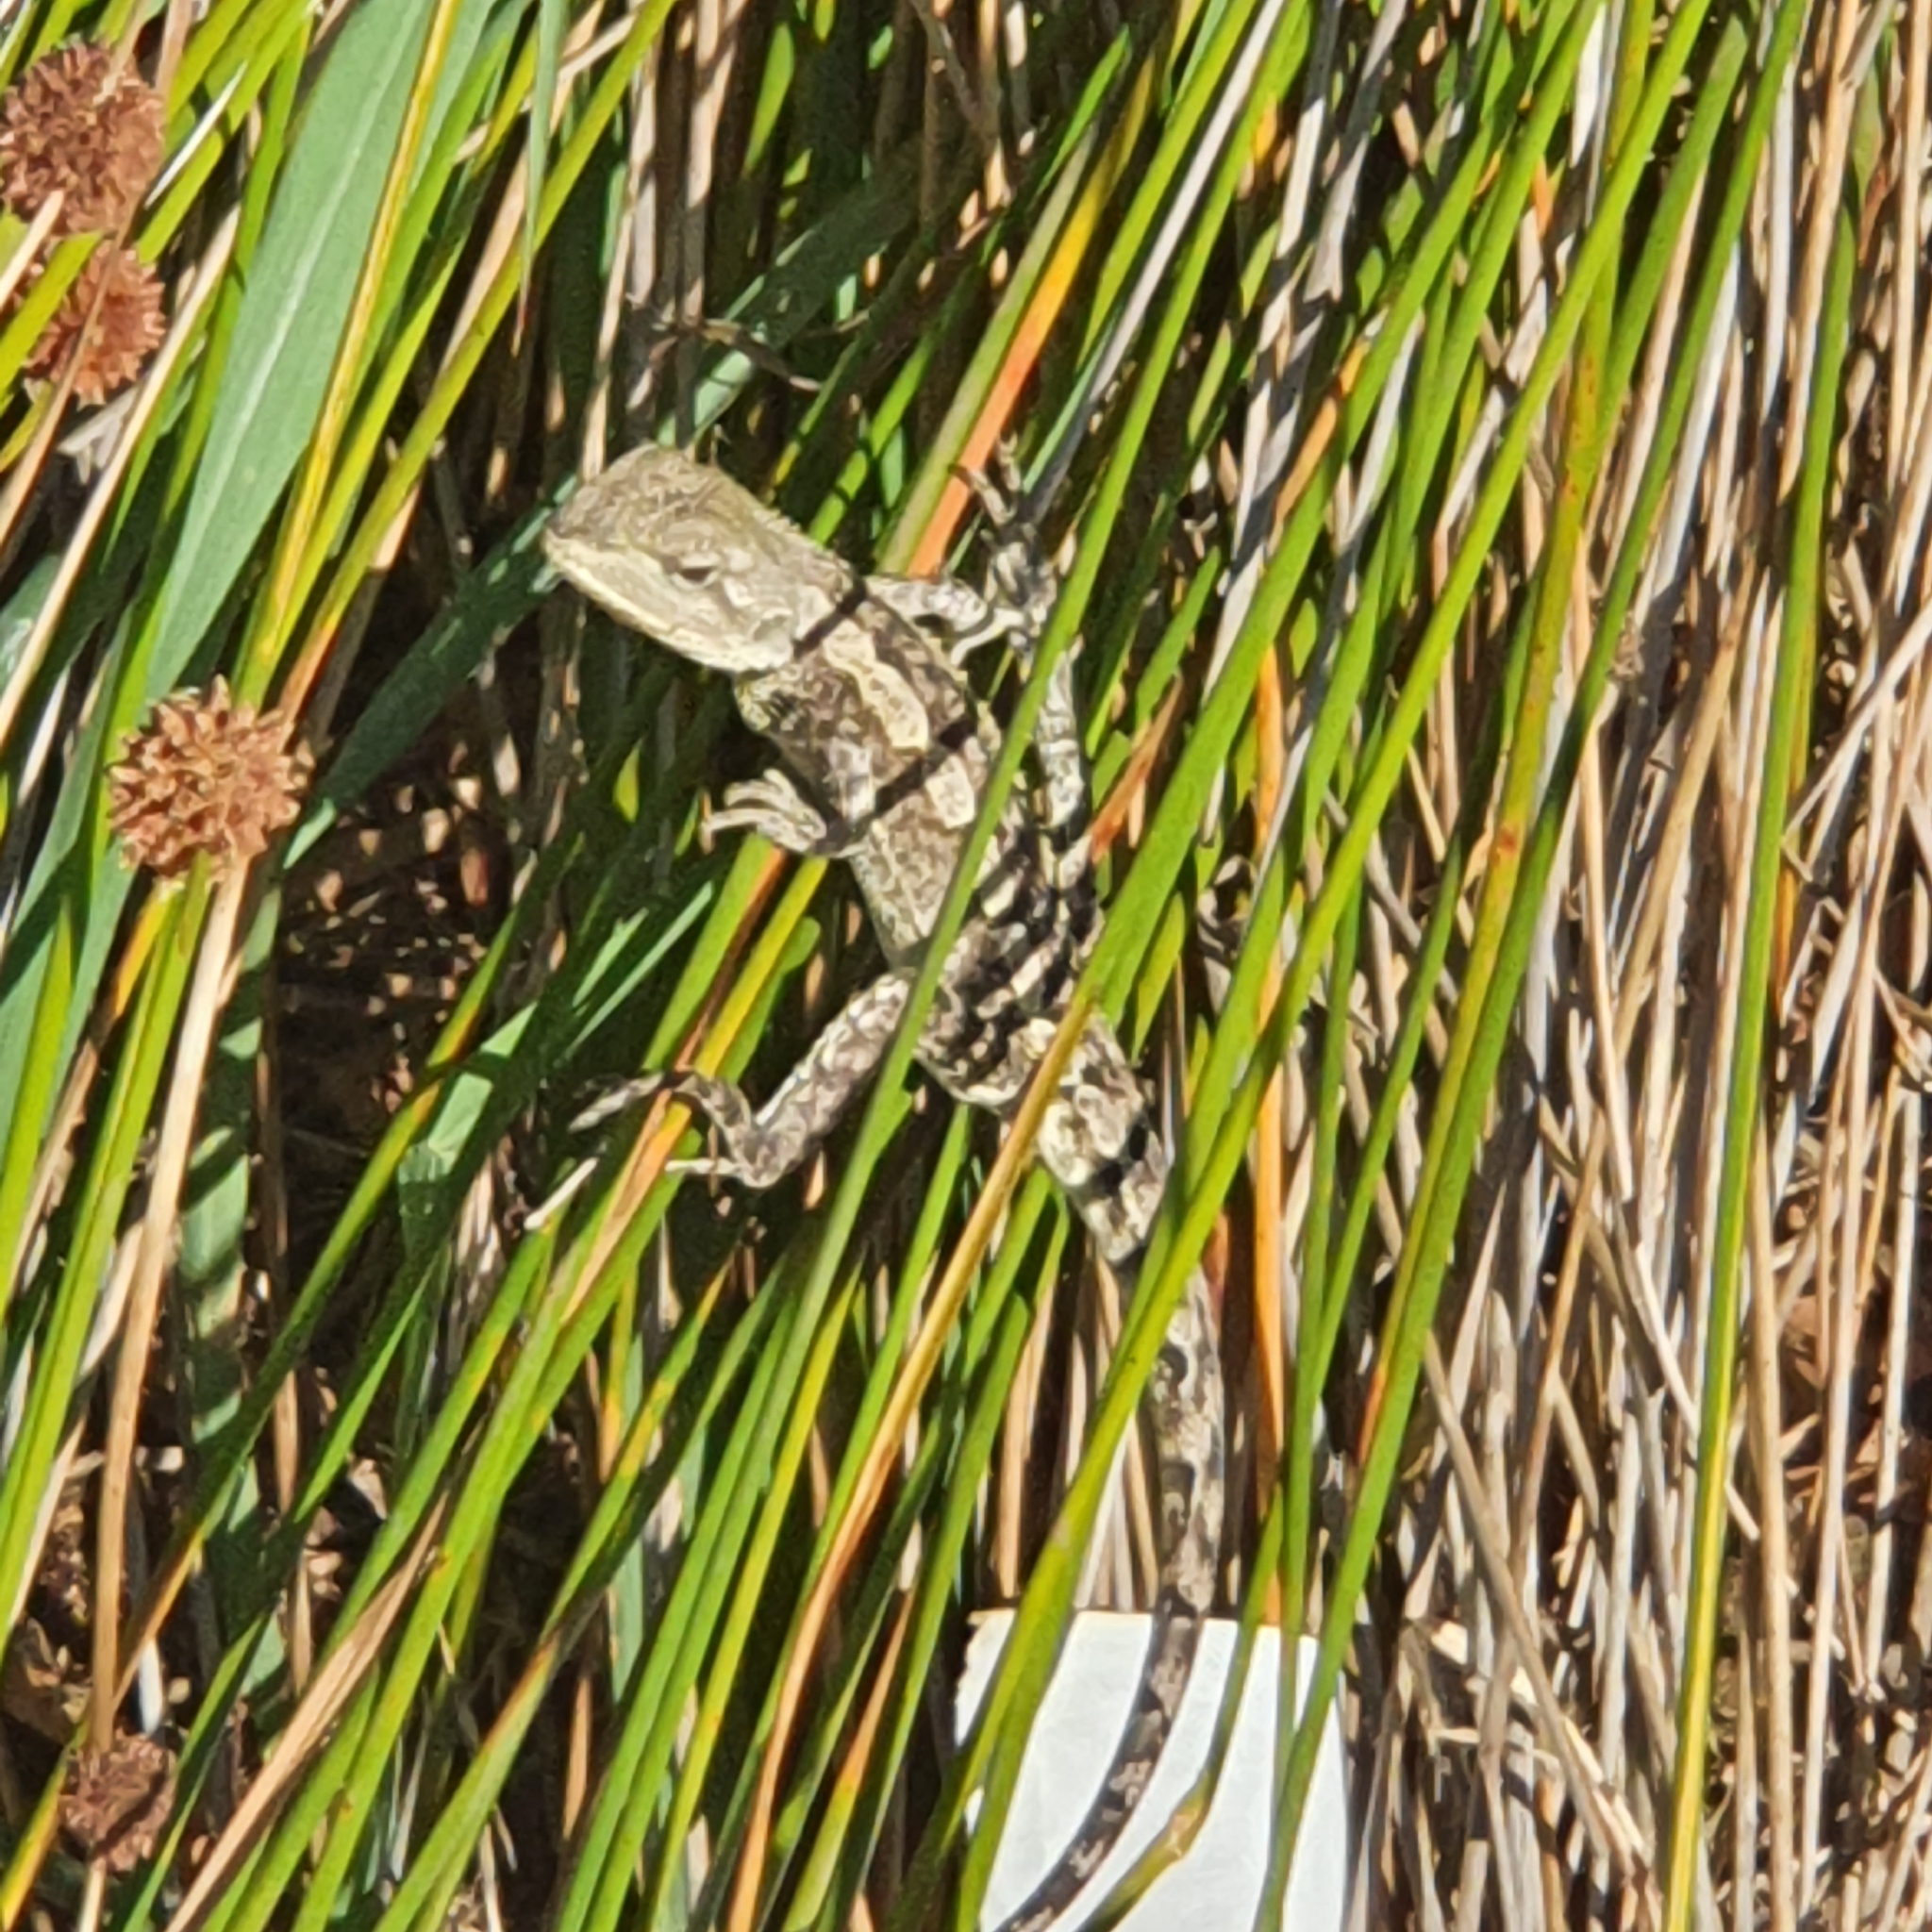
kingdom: Animalia
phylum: Chordata
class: Squamata
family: Agamidae
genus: Amphibolurus
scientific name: Amphibolurus muricatus
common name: Jacky lizard
